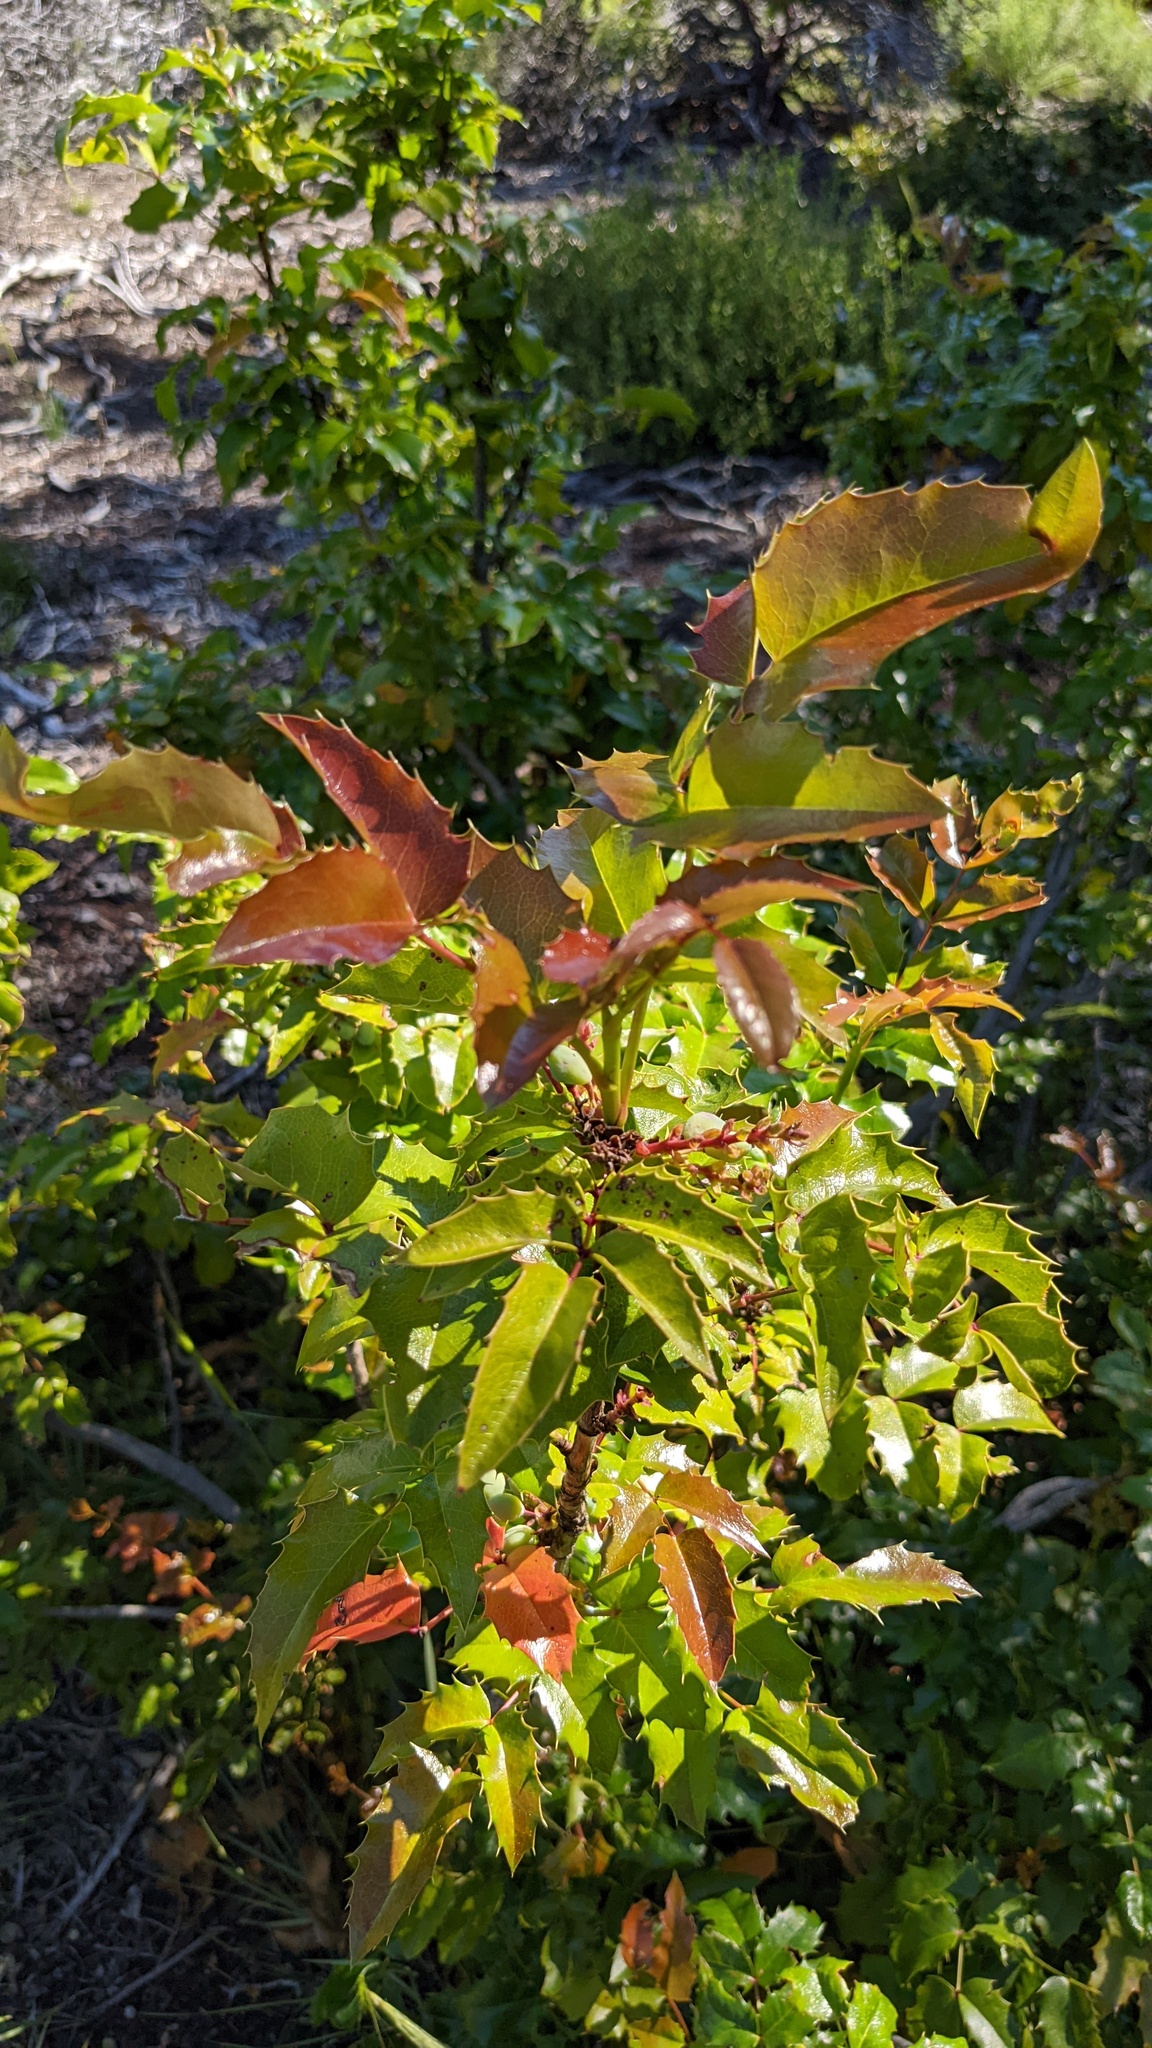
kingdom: Plantae
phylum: Tracheophyta
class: Magnoliopsida
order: Ranunculales
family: Berberidaceae
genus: Mahonia
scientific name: Mahonia aquifolium
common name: Oregon-grape
